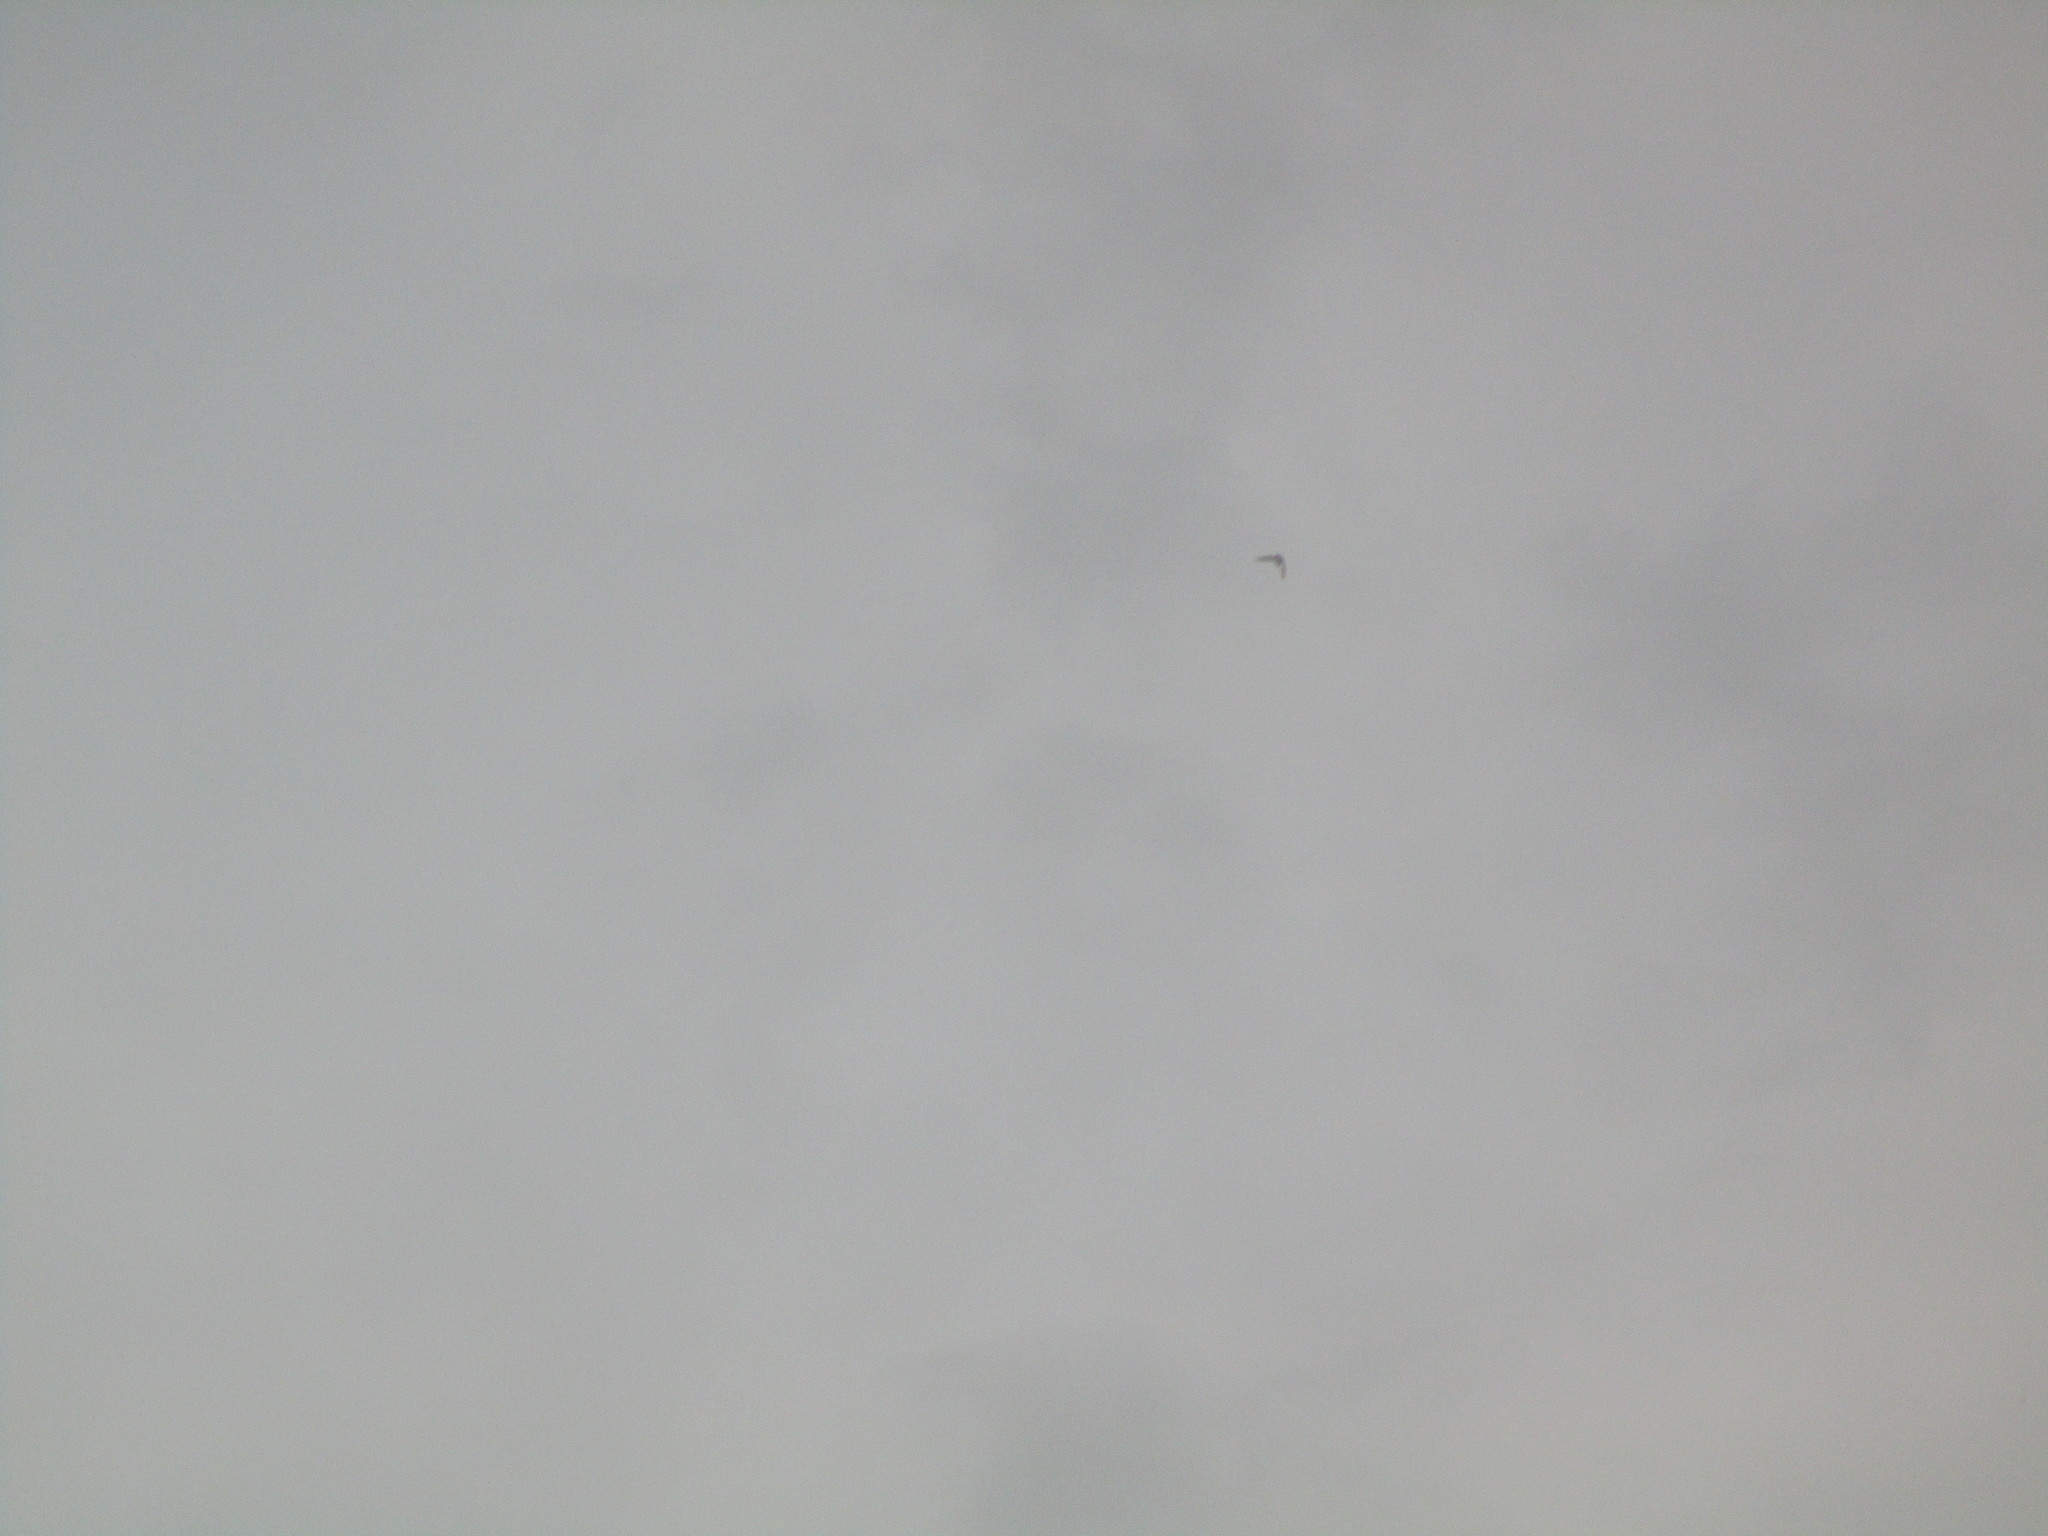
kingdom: Animalia
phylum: Chordata
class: Aves
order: Apodiformes
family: Apodidae
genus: Chaetura
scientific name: Chaetura pelagica
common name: Chimney swift
